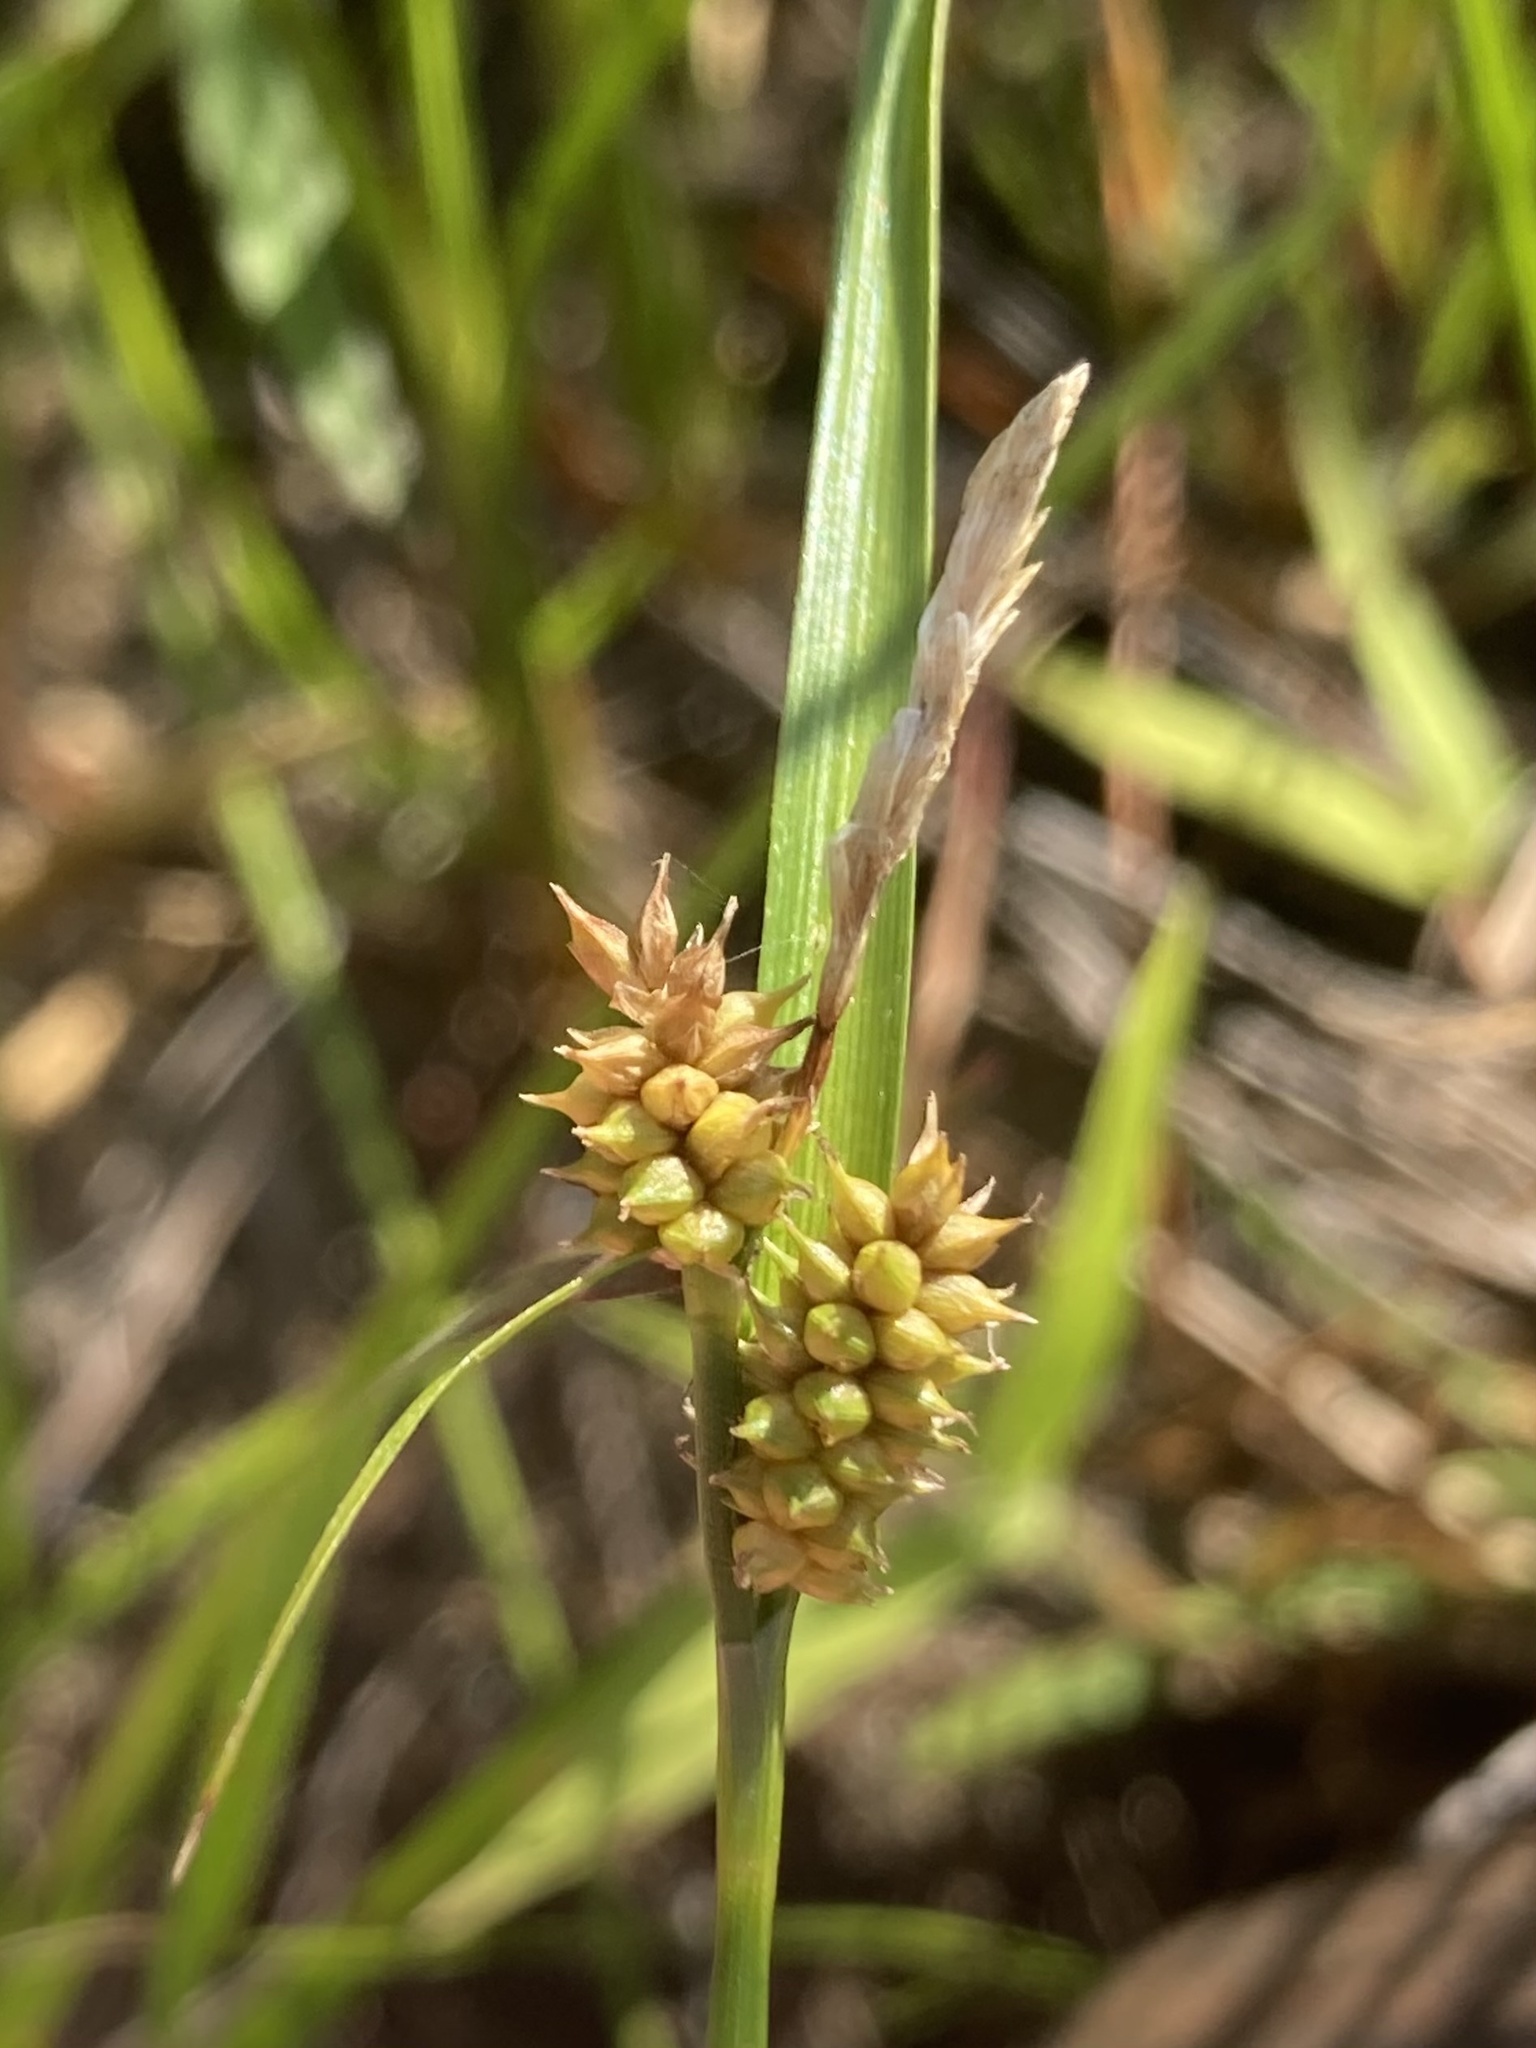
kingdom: Plantae
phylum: Tracheophyta
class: Liliopsida
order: Poales
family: Cyperaceae
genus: Carex
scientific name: Carex
